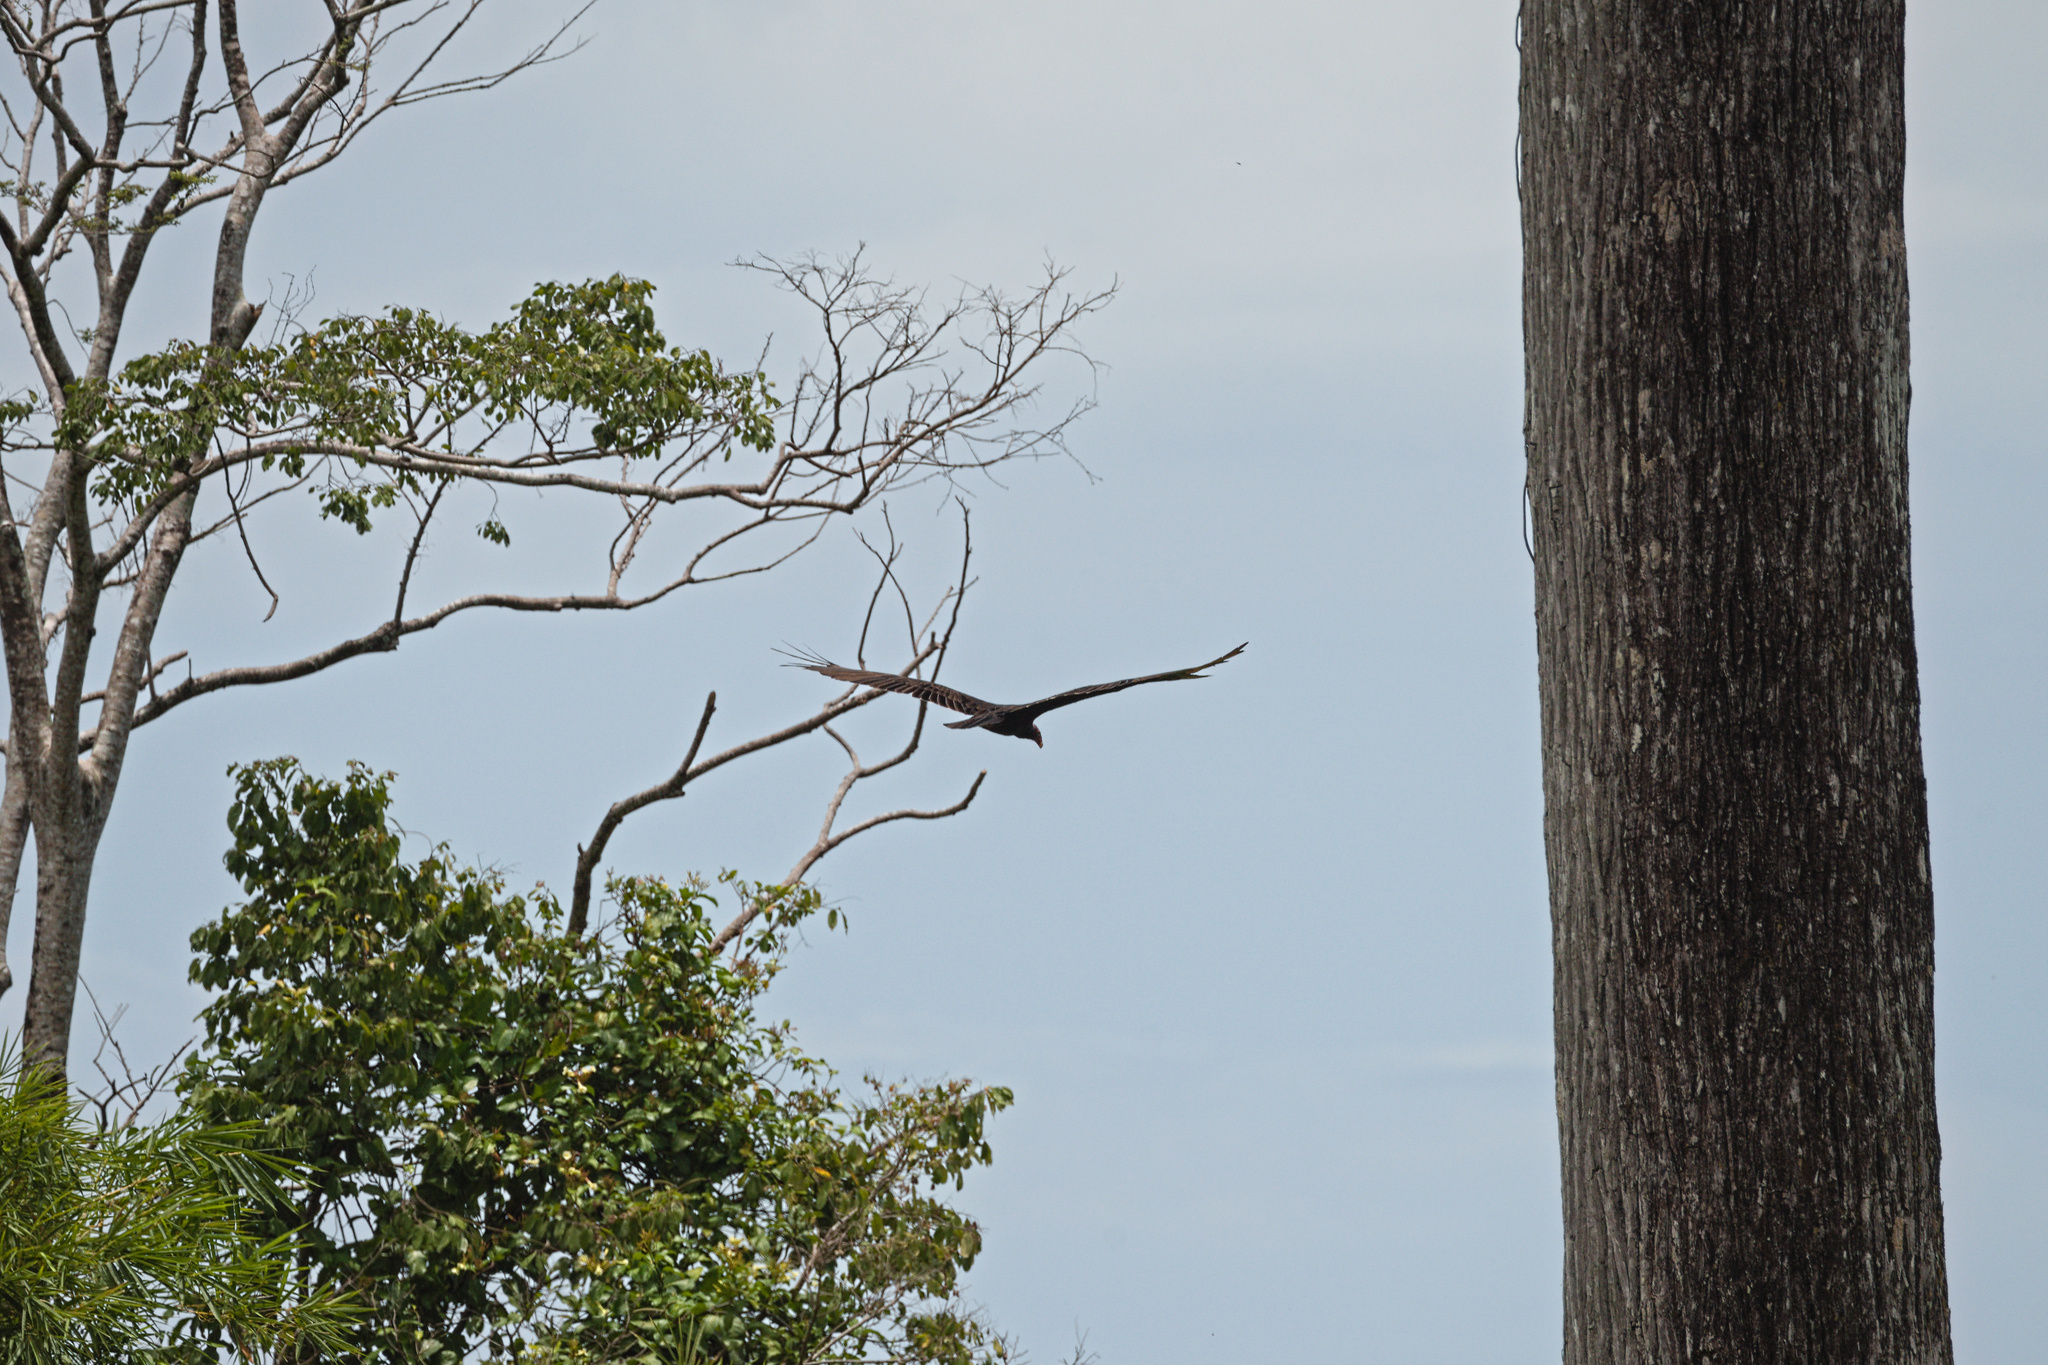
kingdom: Animalia
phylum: Chordata
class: Aves
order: Accipitriformes
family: Cathartidae
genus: Coragyps
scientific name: Coragyps atratus
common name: Black vulture
